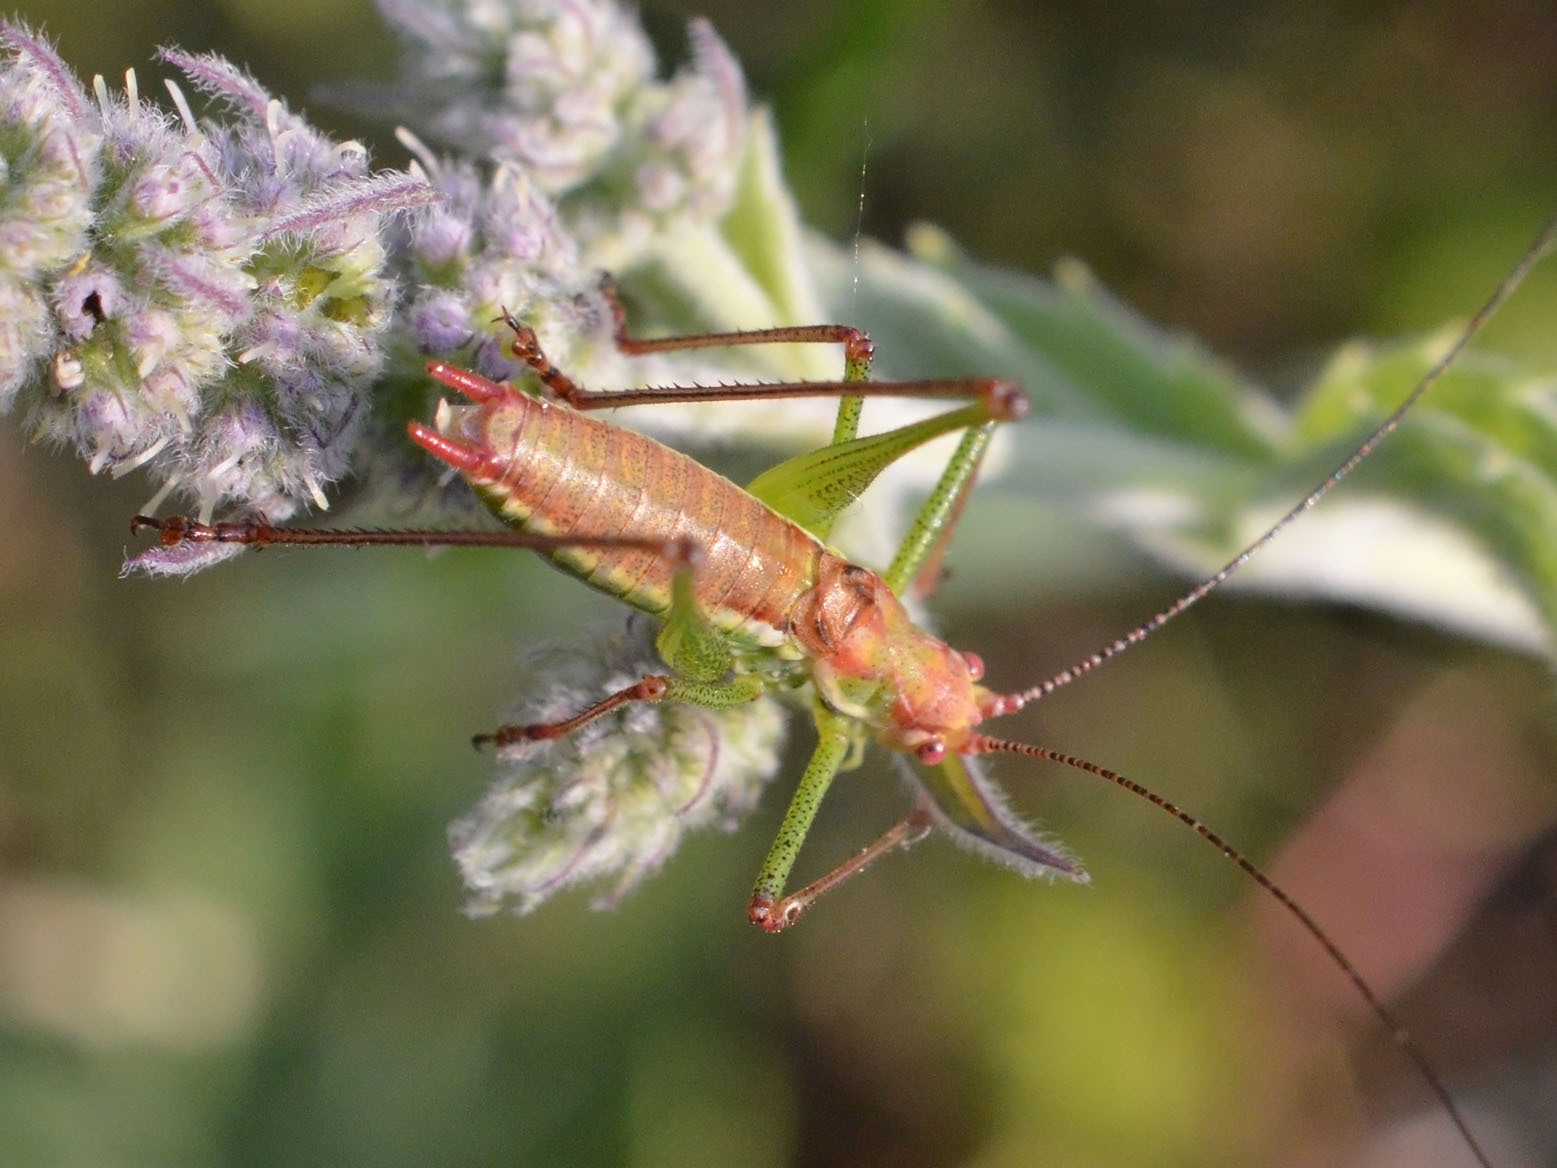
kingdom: Animalia
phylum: Arthropoda
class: Insecta
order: Orthoptera
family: Tettigoniidae
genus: Leptophyes
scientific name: Leptophyes albovittata
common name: Striped bush-cricket
